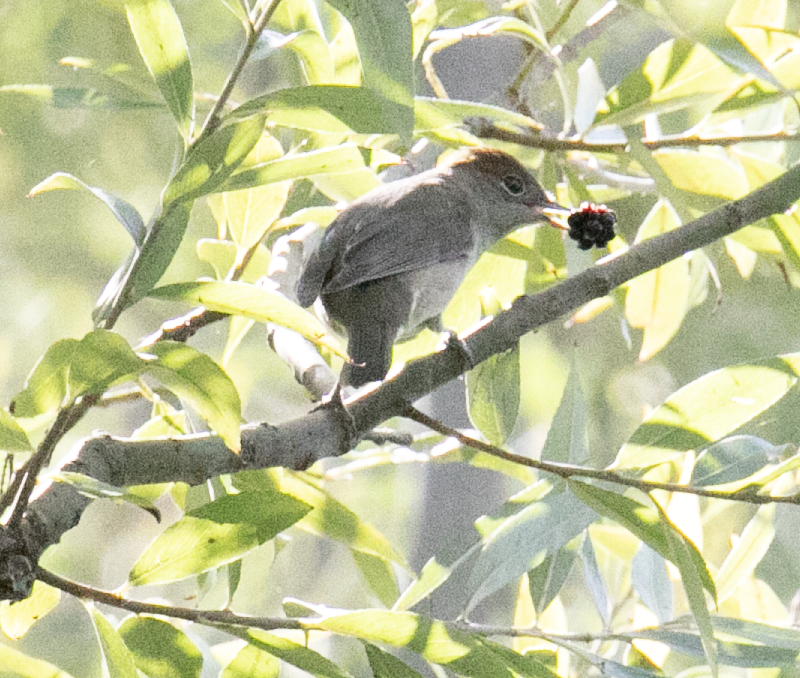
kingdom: Animalia
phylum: Chordata
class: Aves
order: Passeriformes
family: Sylviidae
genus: Sylvia
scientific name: Sylvia atricapilla
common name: Eurasian blackcap
